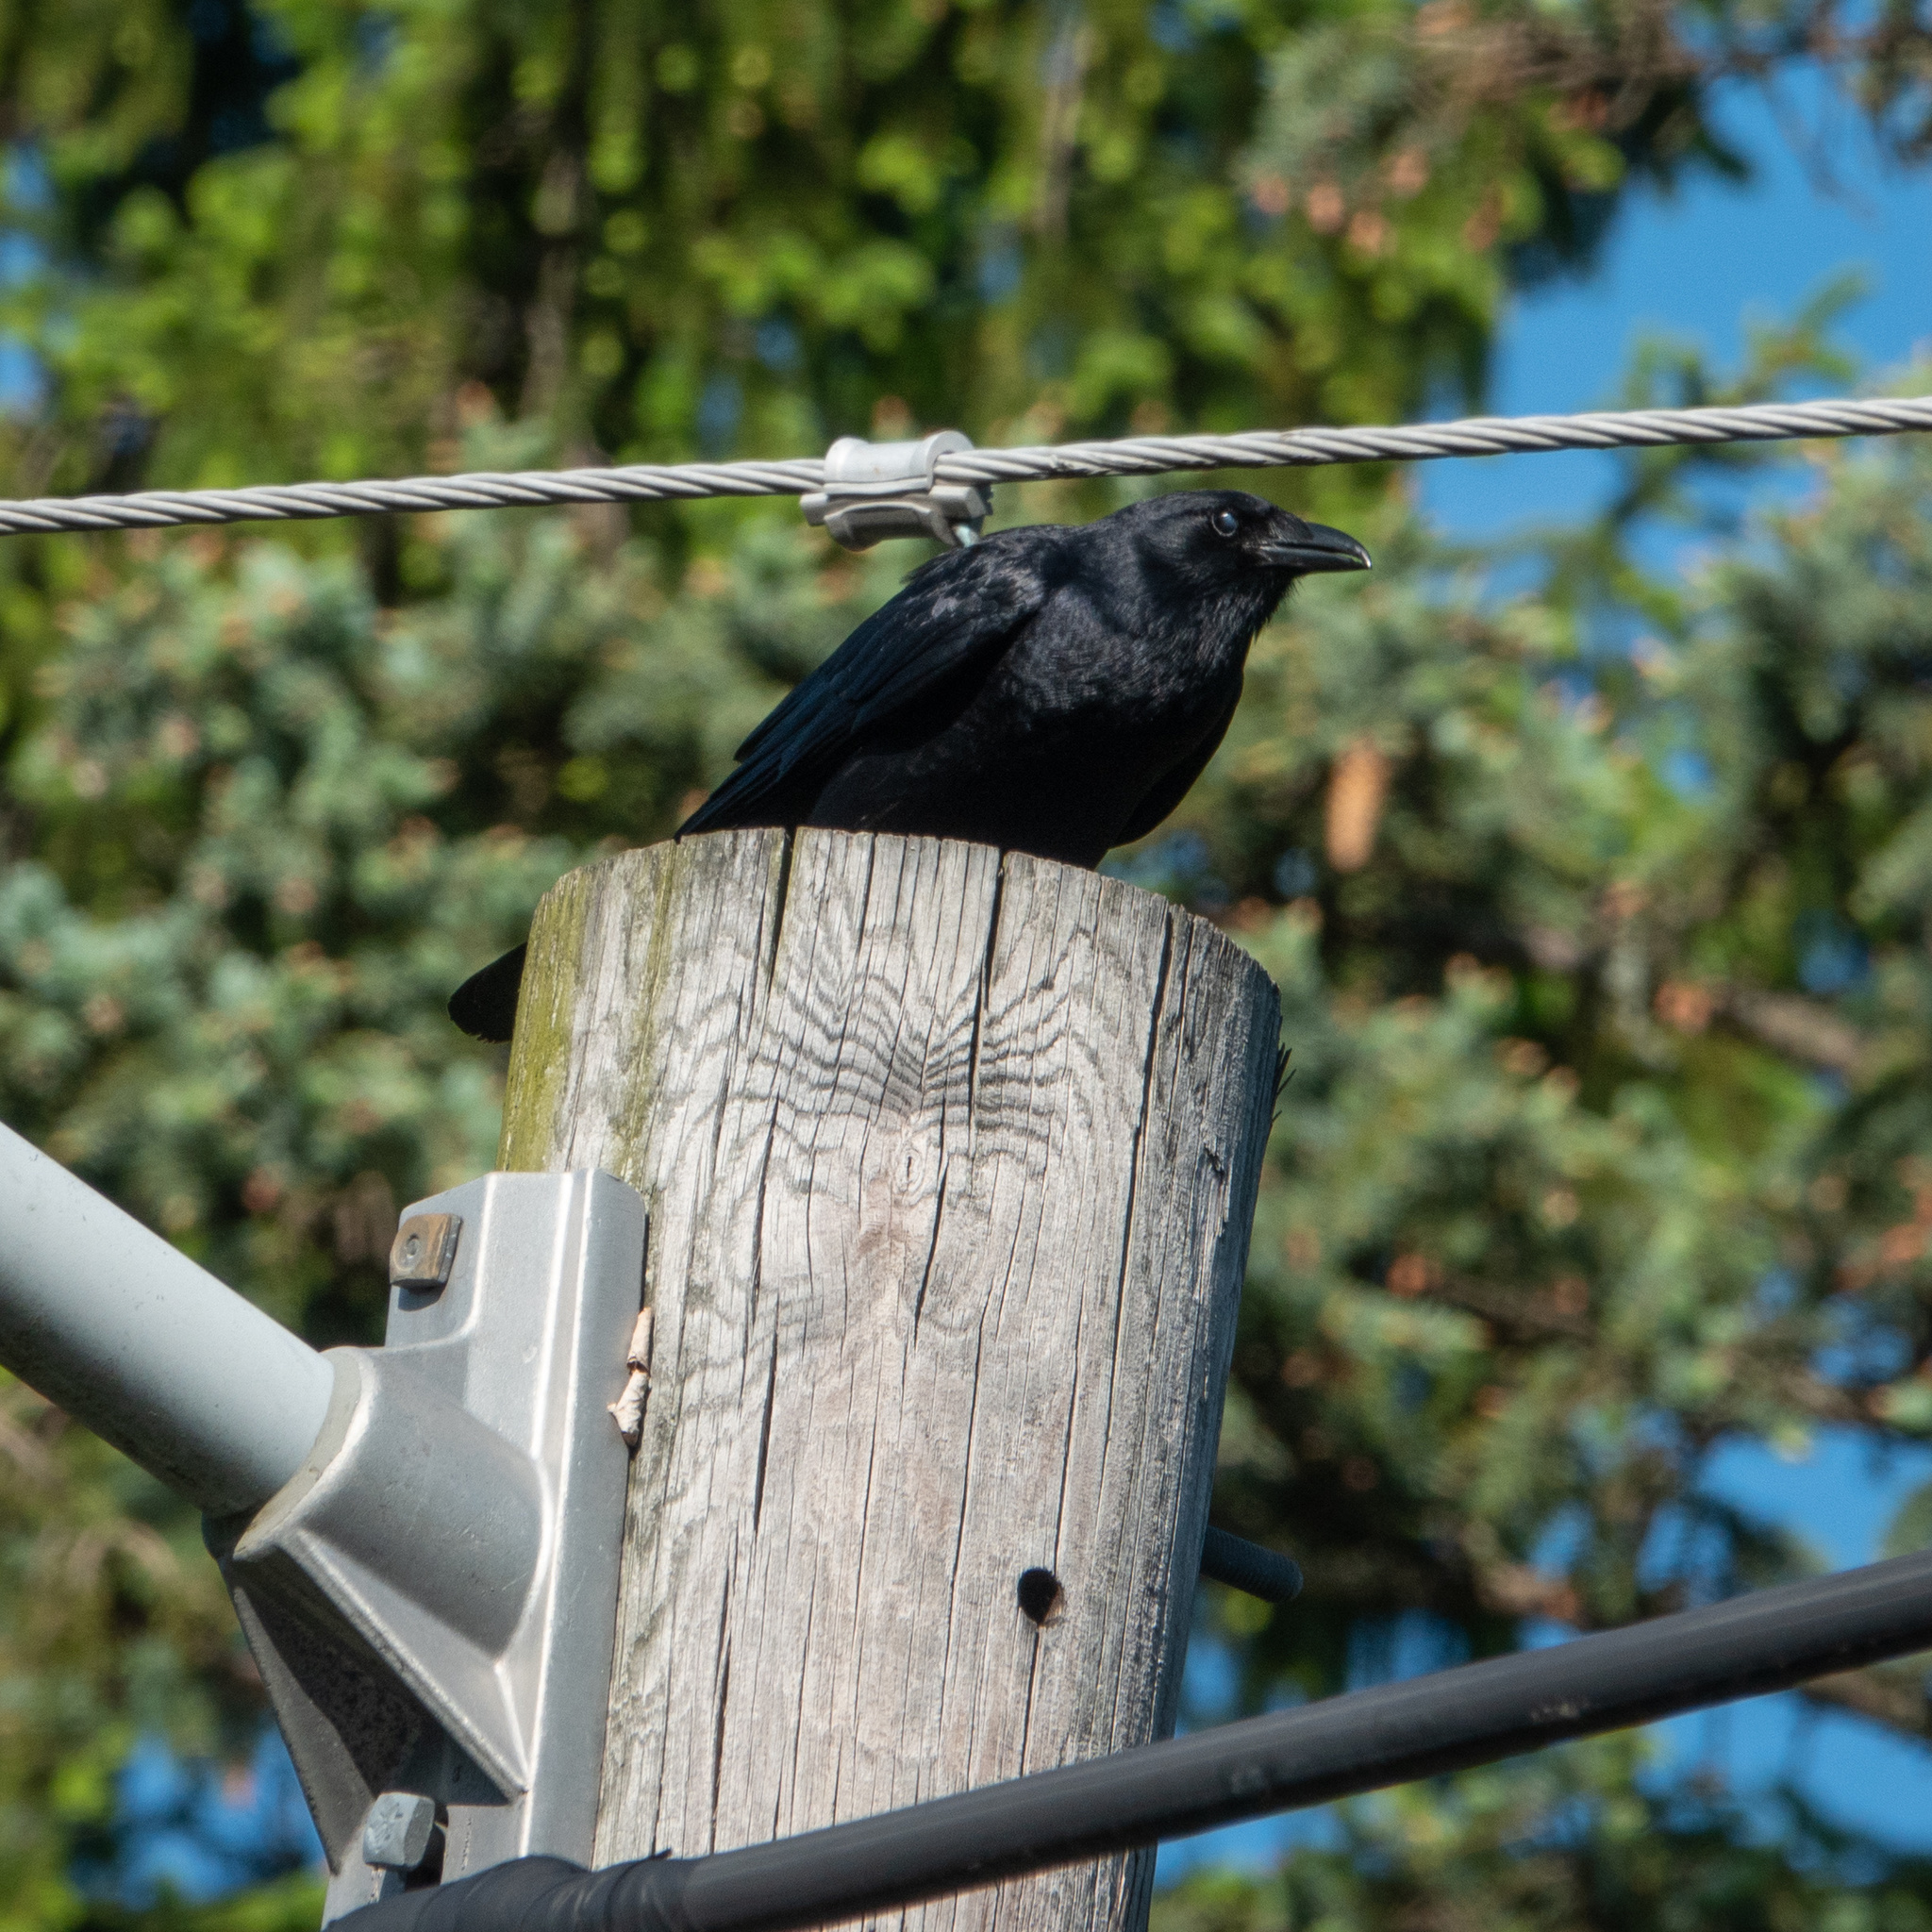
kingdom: Animalia
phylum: Chordata
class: Aves
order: Passeriformes
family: Corvidae
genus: Corvus
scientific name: Corvus brachyrhynchos
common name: American crow
